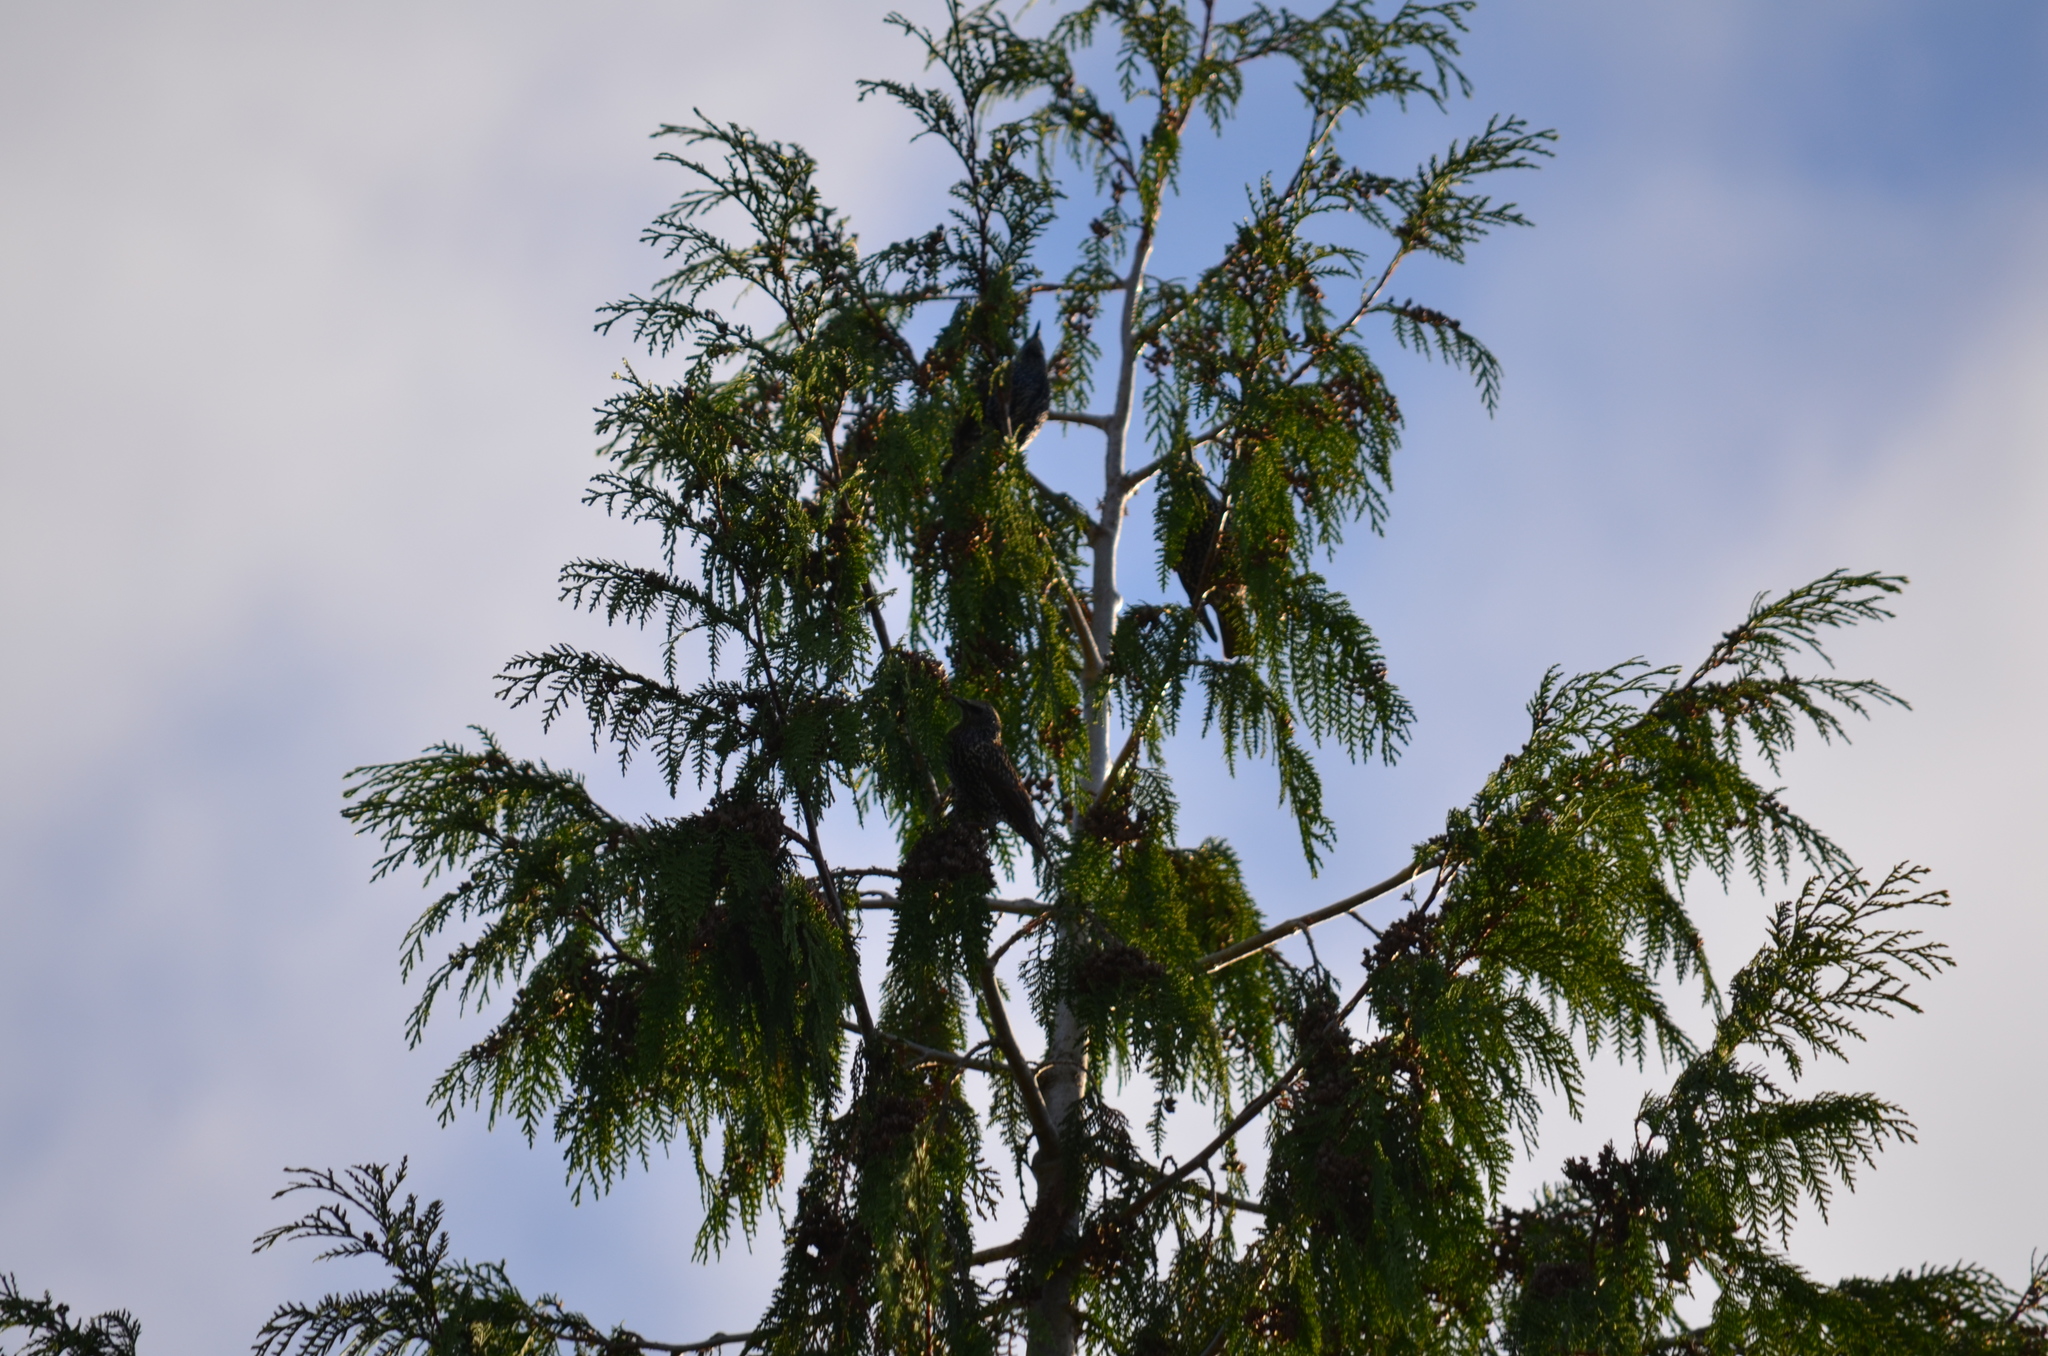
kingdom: Animalia
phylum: Chordata
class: Aves
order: Passeriformes
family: Sturnidae
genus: Sturnus
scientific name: Sturnus vulgaris
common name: Common starling
